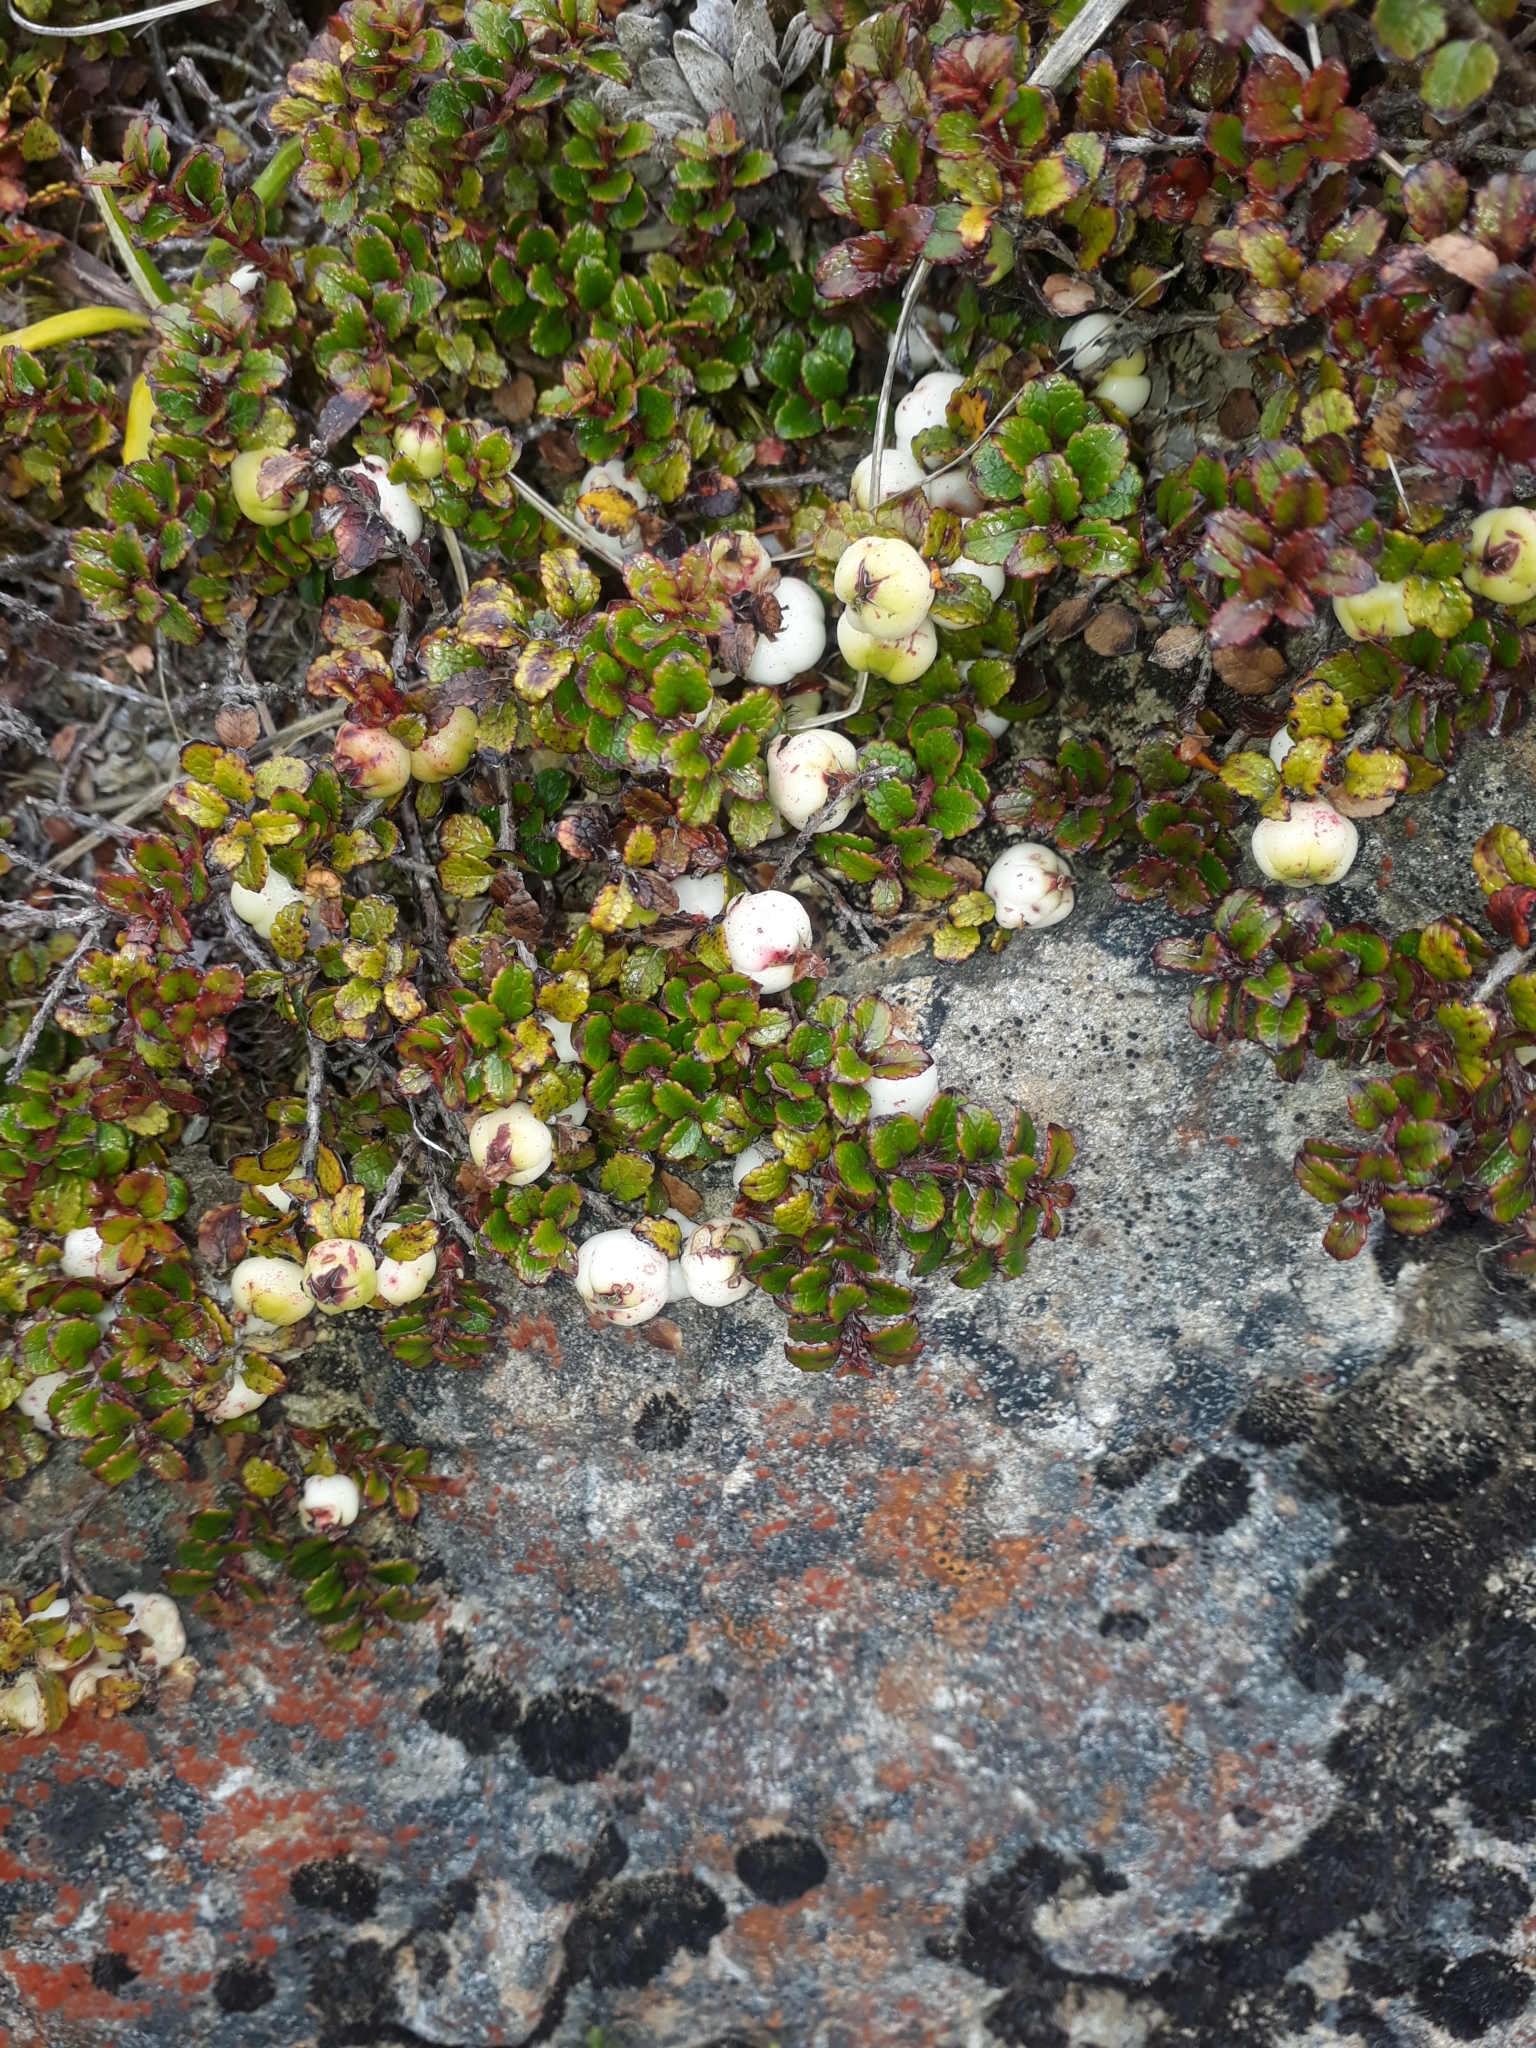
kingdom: Plantae
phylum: Tracheophyta
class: Magnoliopsida
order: Ericales
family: Ericaceae
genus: Gaultheria
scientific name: Gaultheria depressa
